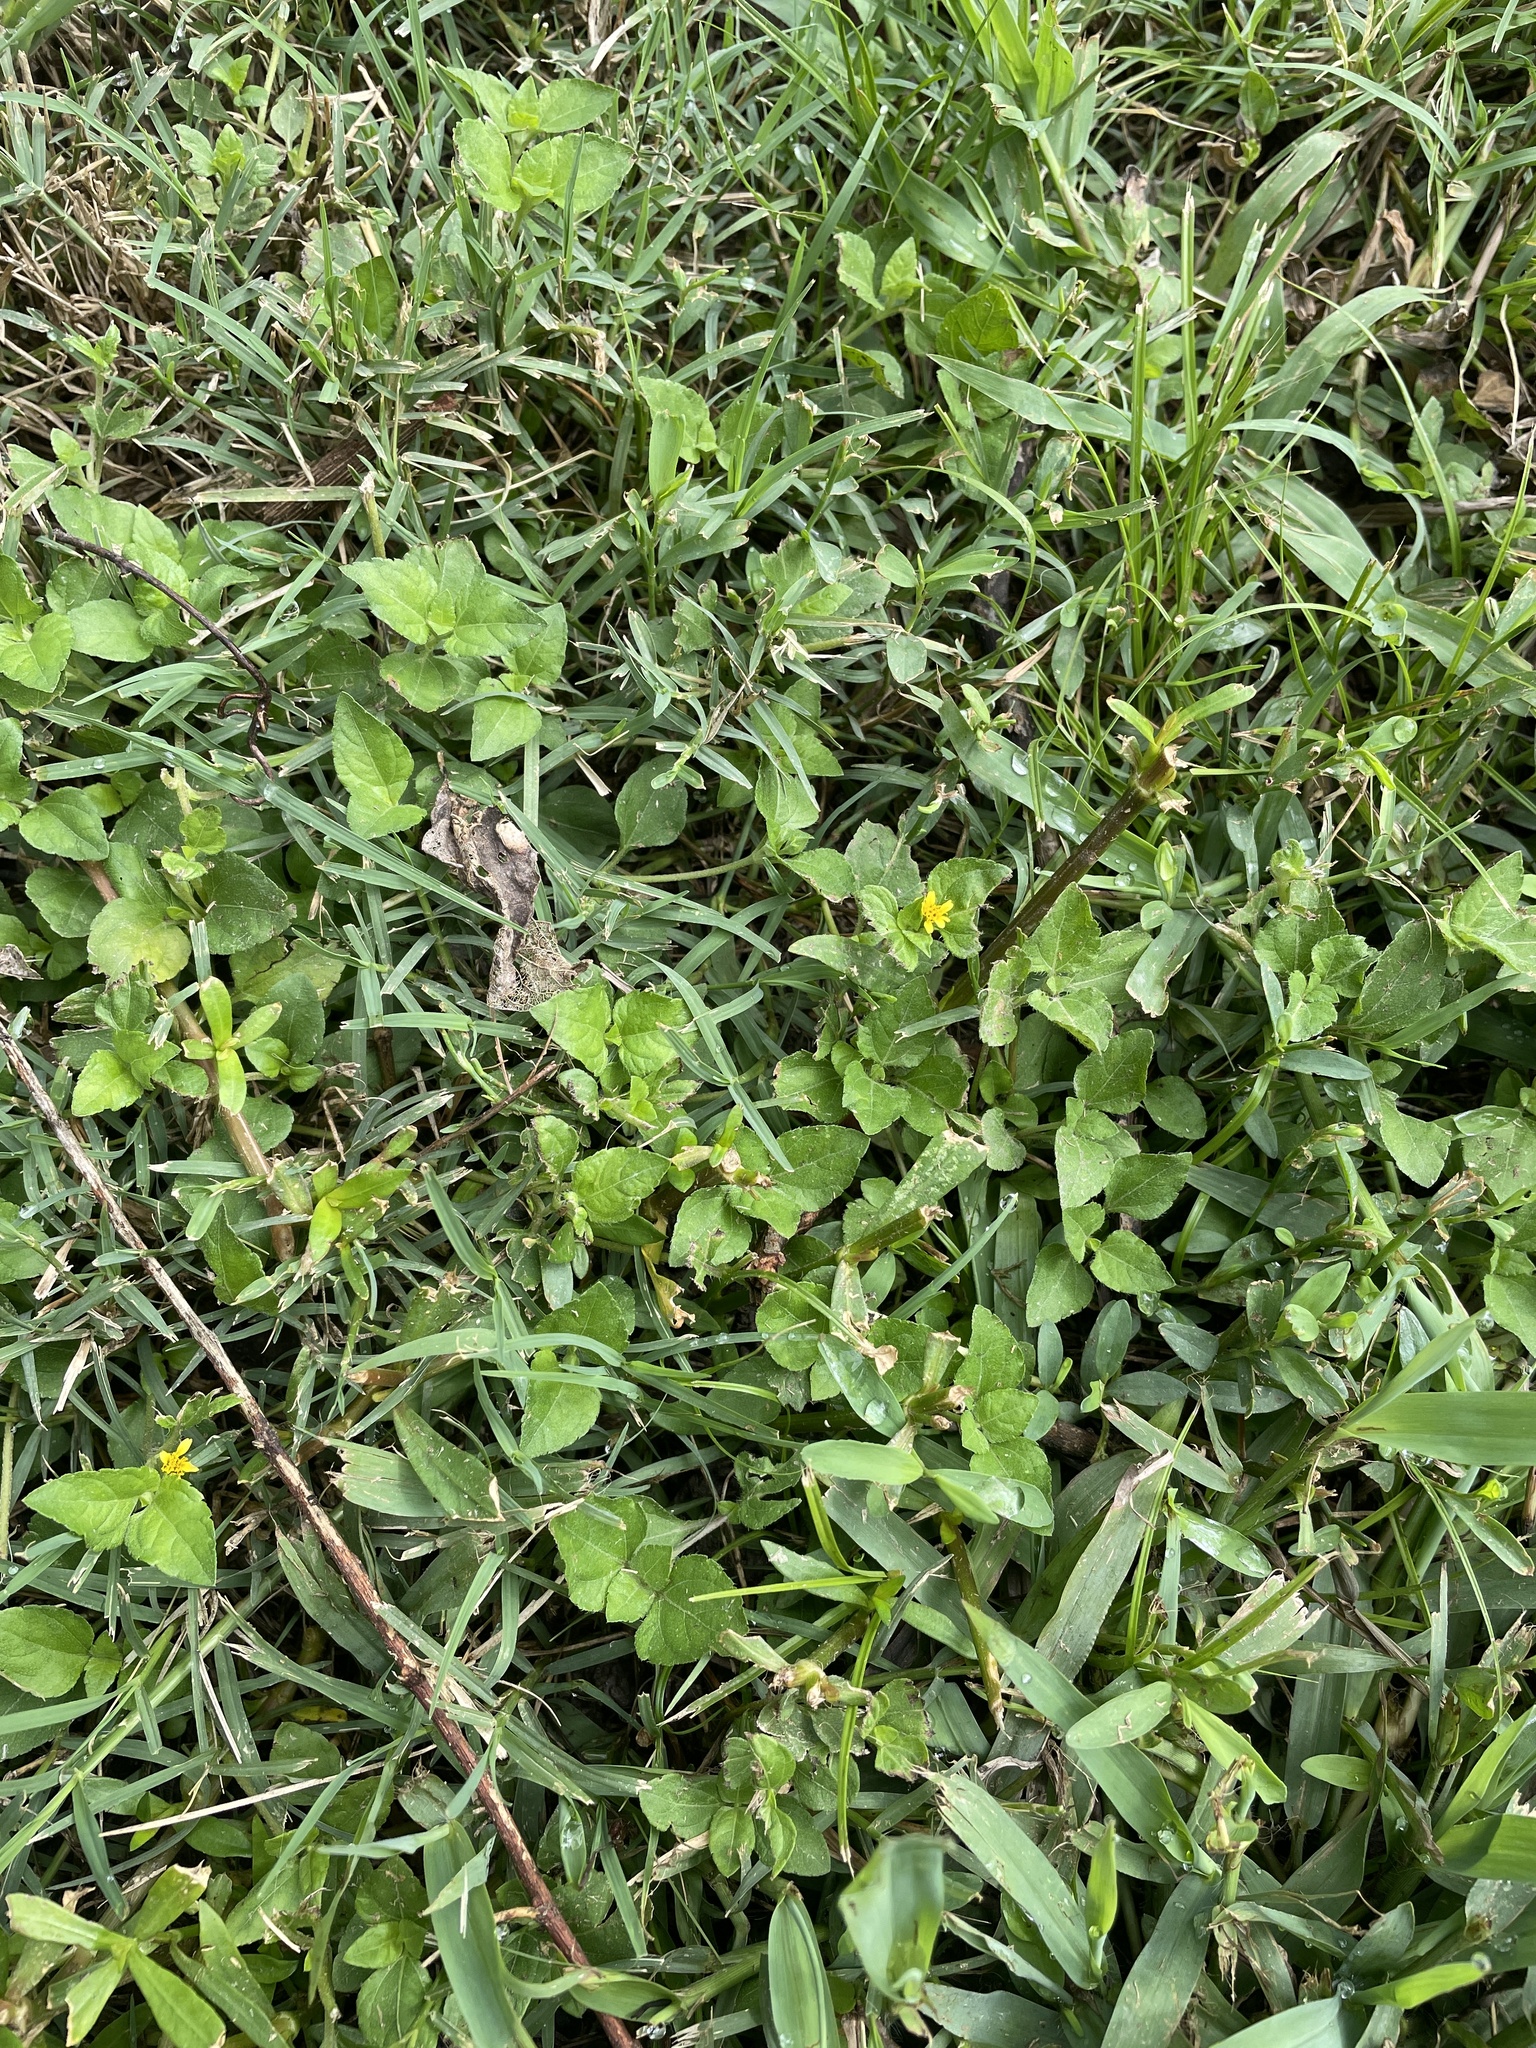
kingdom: Plantae
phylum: Tracheophyta
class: Magnoliopsida
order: Asterales
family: Asteraceae
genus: Calyptocarpus
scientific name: Calyptocarpus vialis
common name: Straggler daisy
